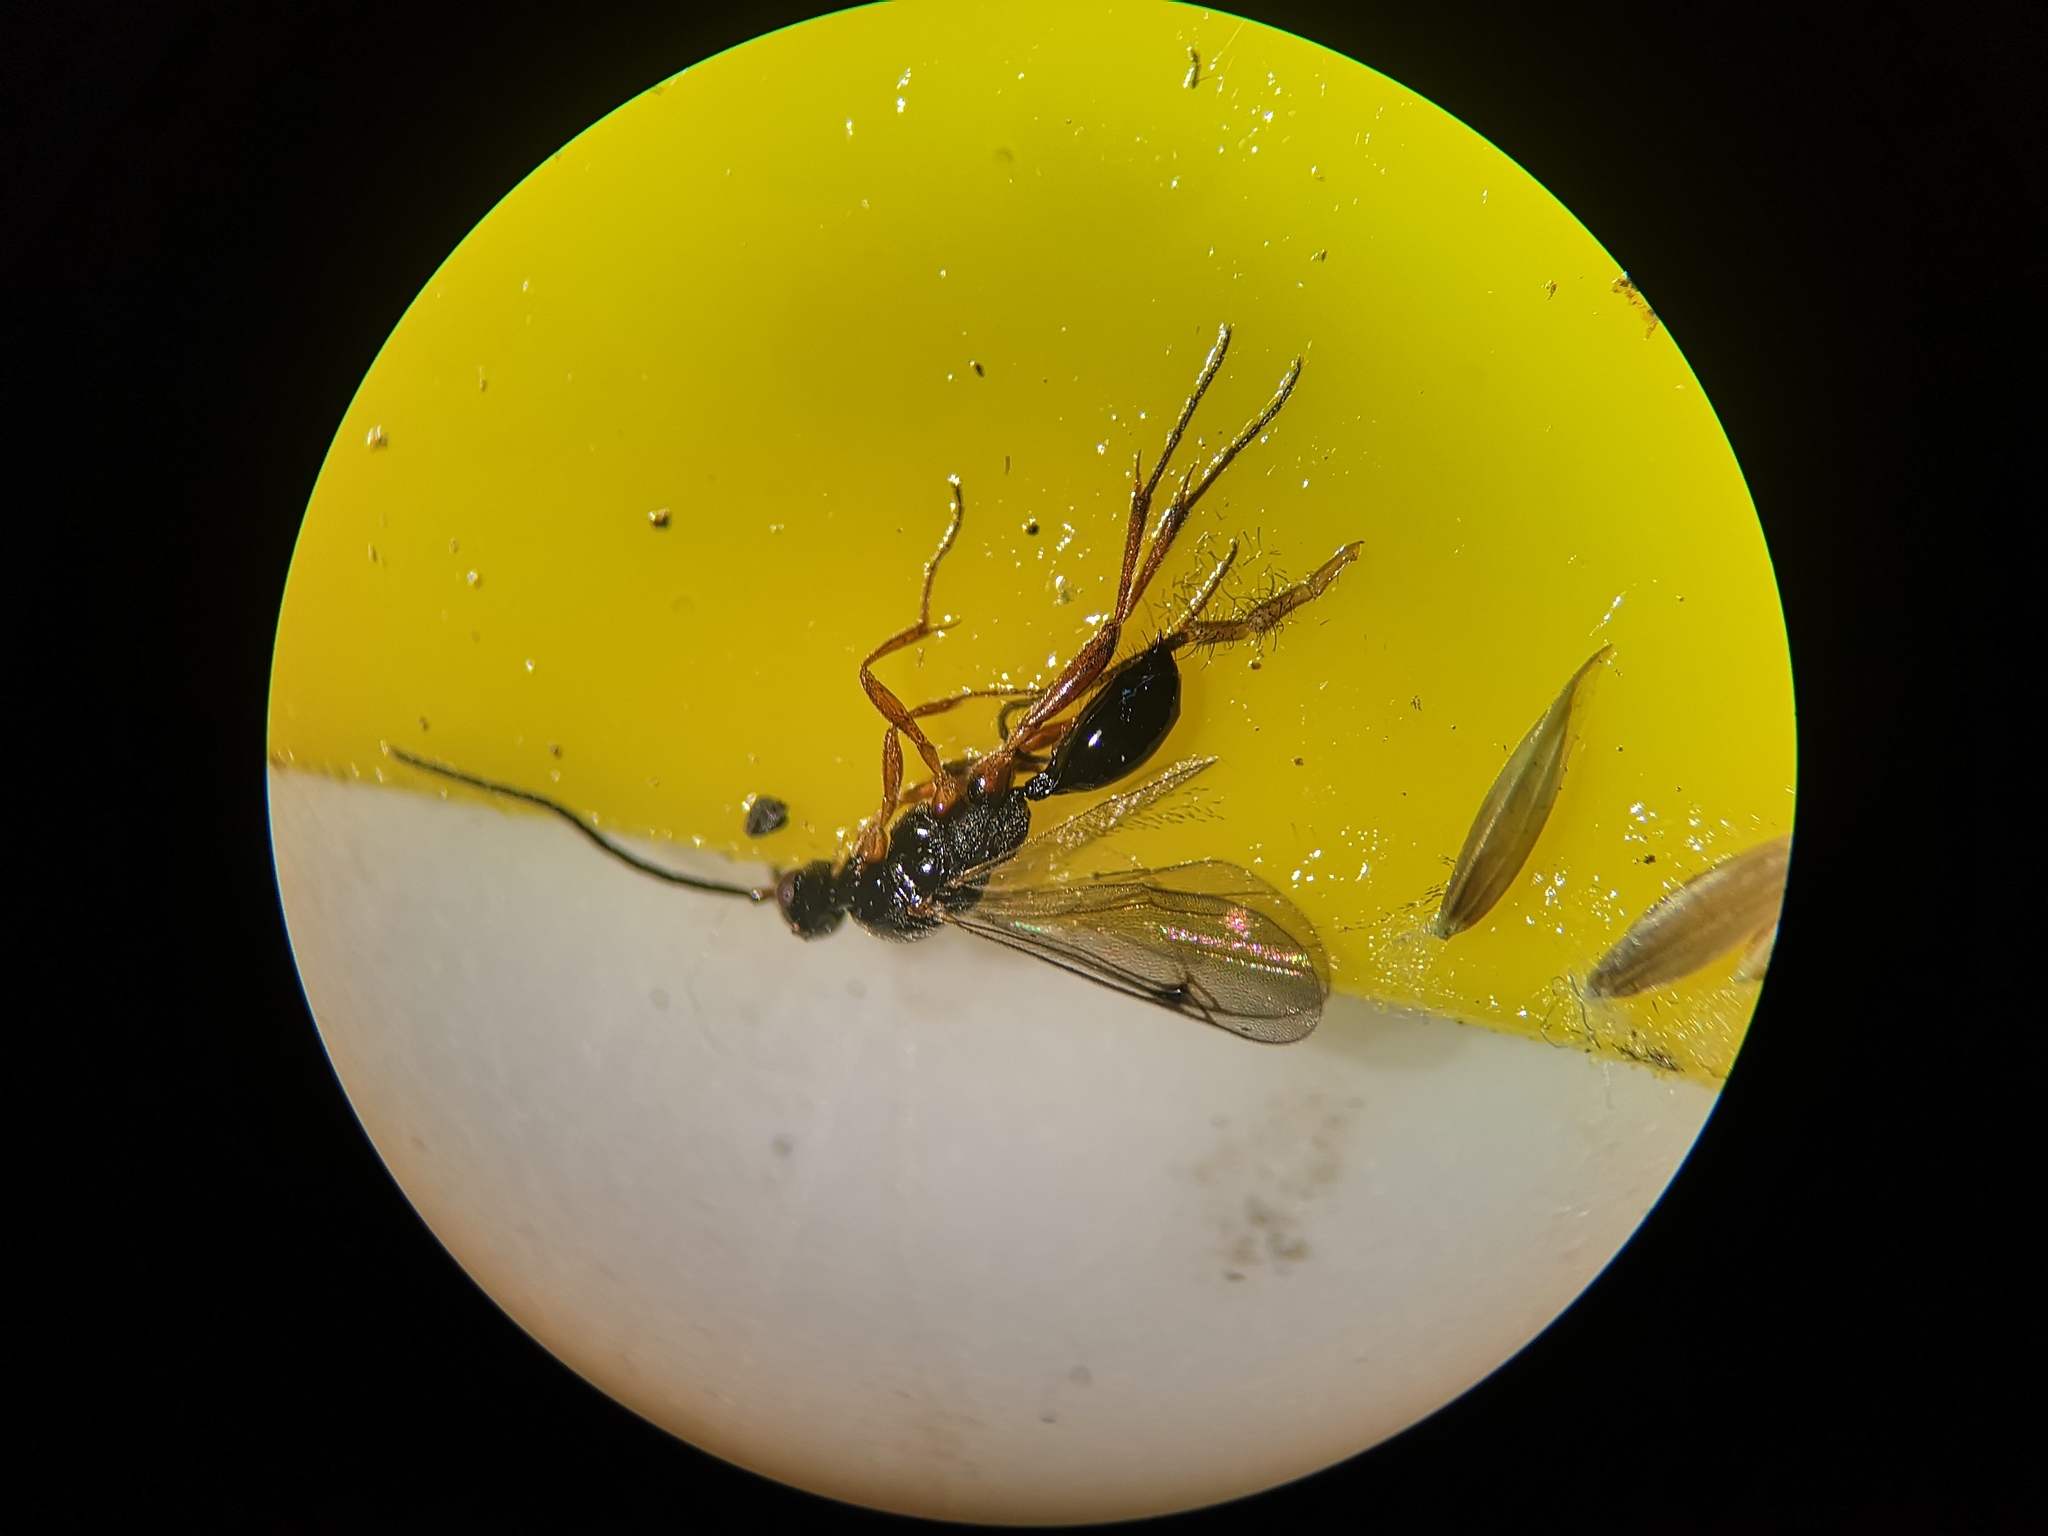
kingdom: Animalia
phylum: Arthropoda
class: Insecta
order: Hymenoptera
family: Proctotrupidae
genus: Phaneroserphus
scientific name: Phaneroserphus calcar
